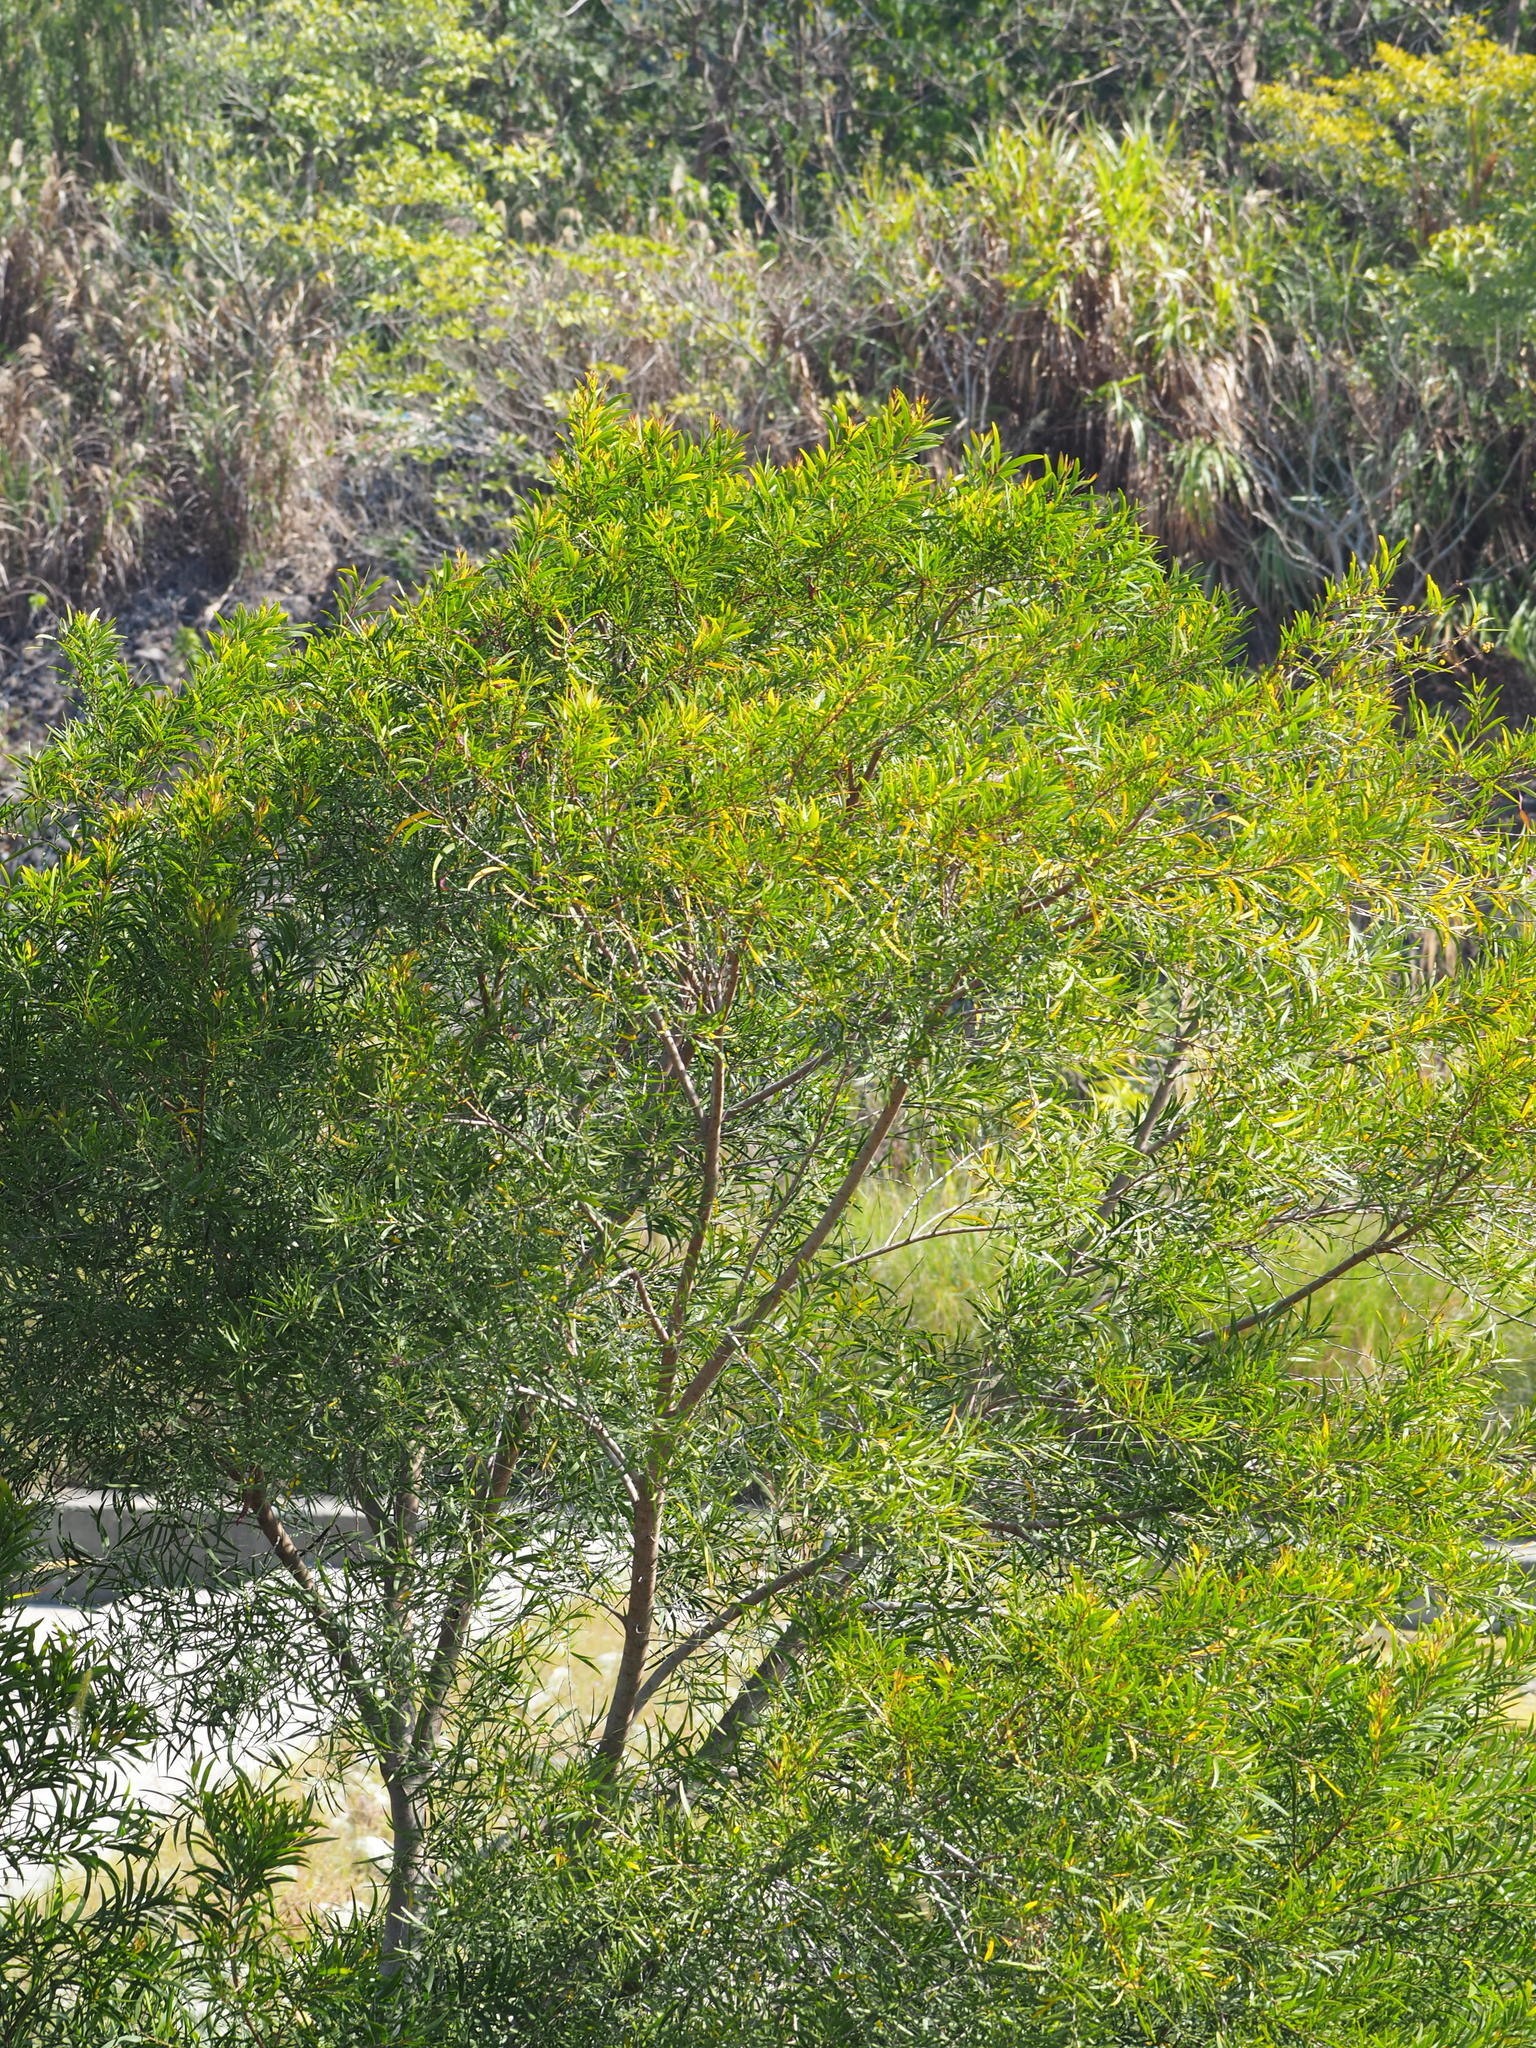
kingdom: Plantae
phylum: Tracheophyta
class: Magnoliopsida
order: Fabales
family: Fabaceae
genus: Acacia
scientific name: Acacia confusa
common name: Formosan koa
